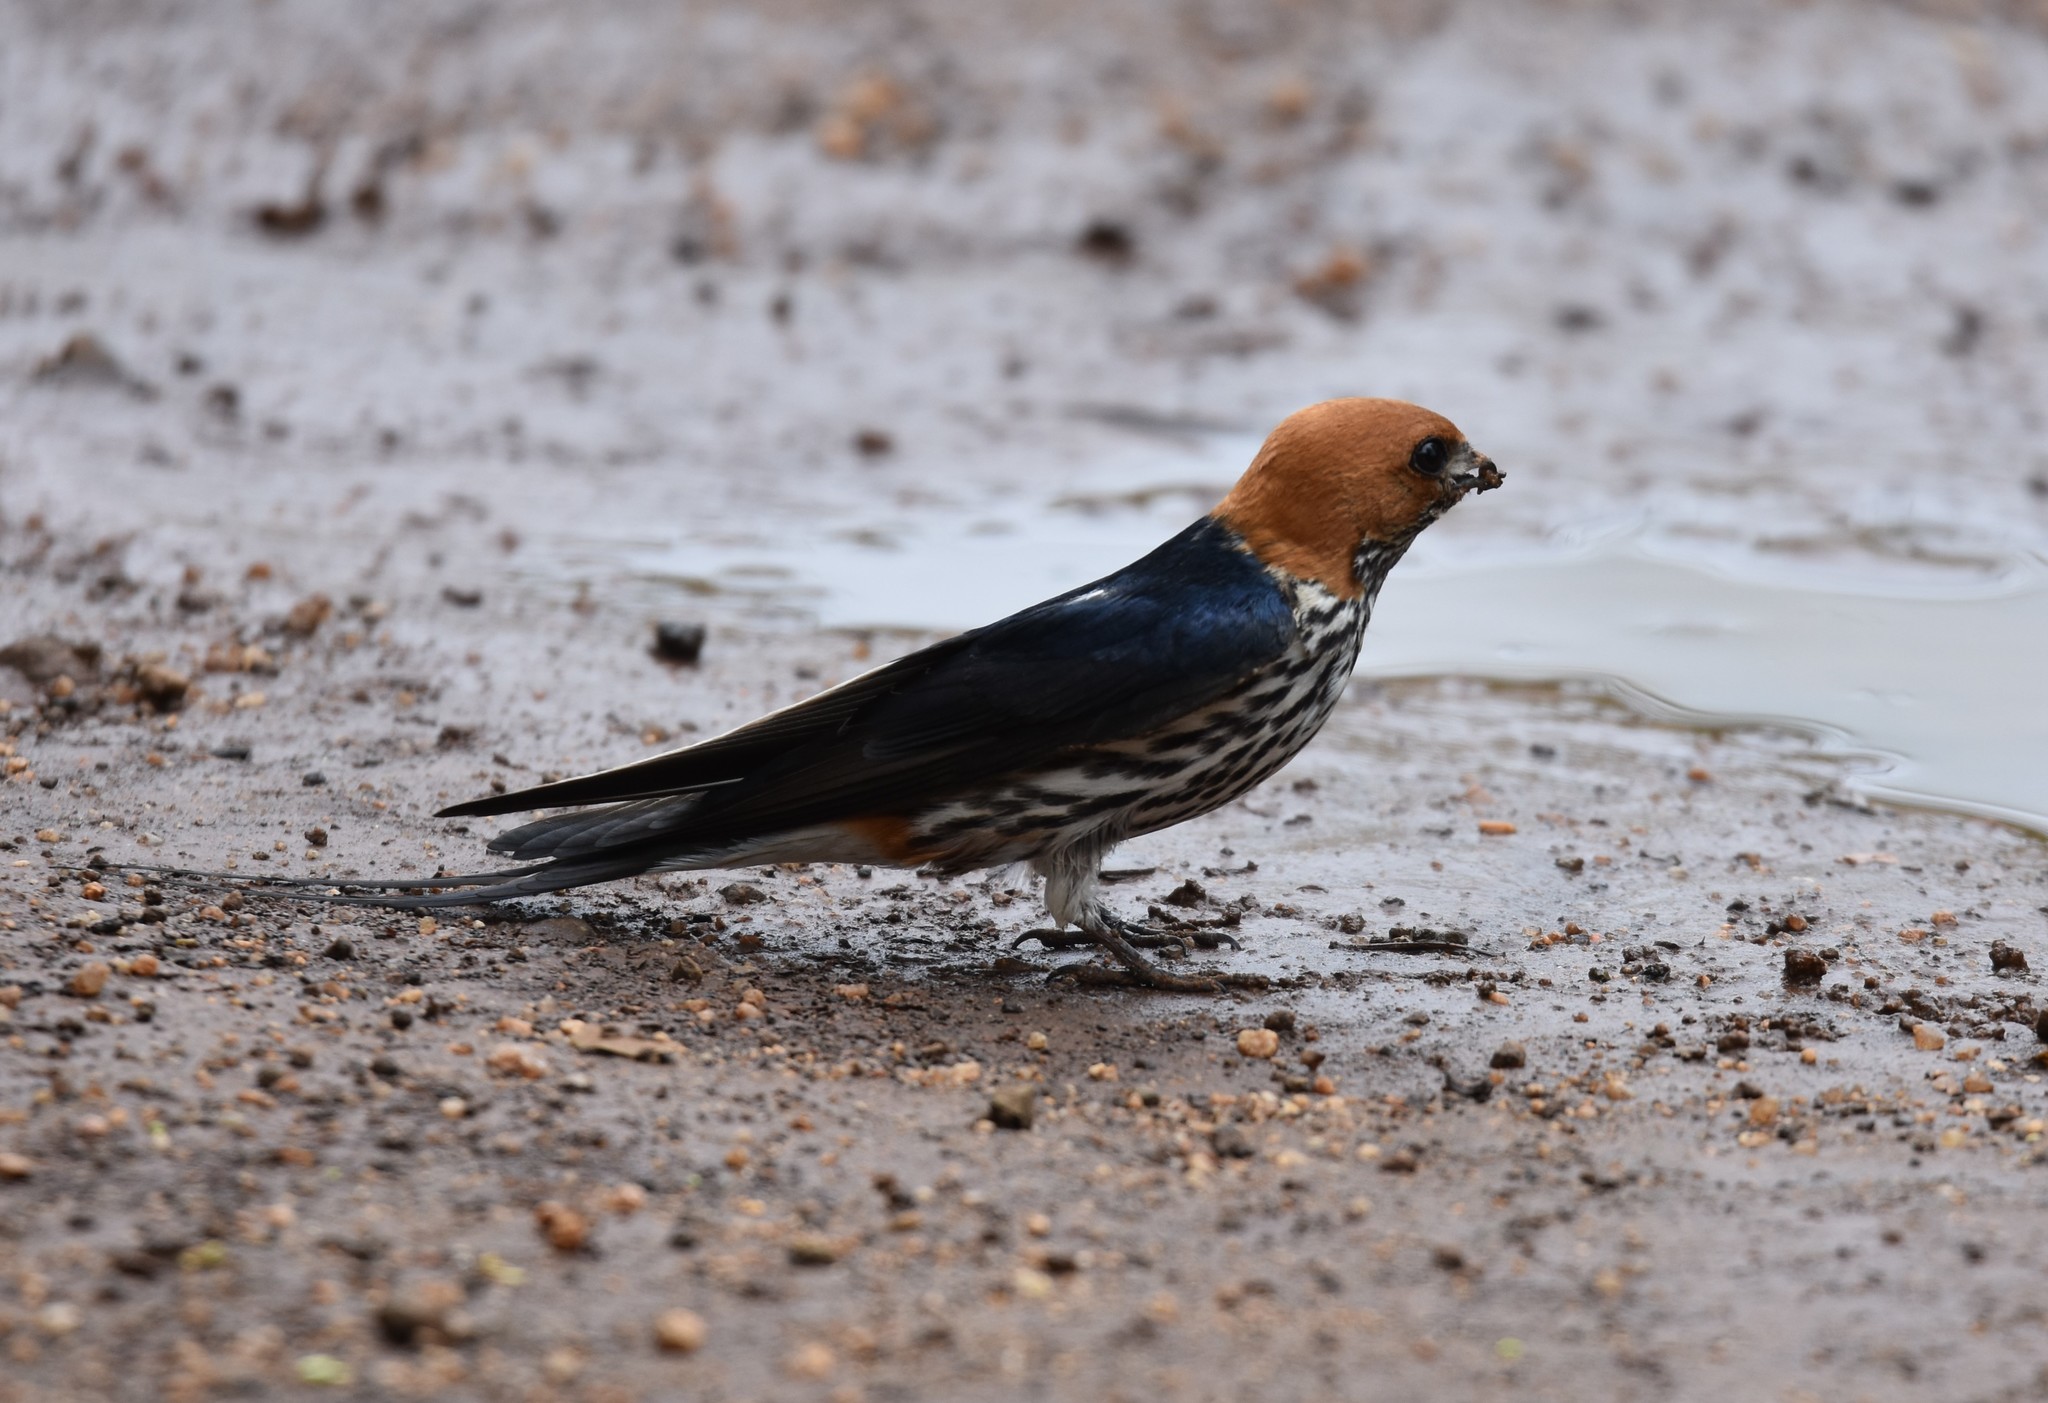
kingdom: Animalia
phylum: Chordata
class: Aves
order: Passeriformes
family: Hirundinidae
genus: Cecropis
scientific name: Cecropis abyssinica
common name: Lesser striped-swallow
